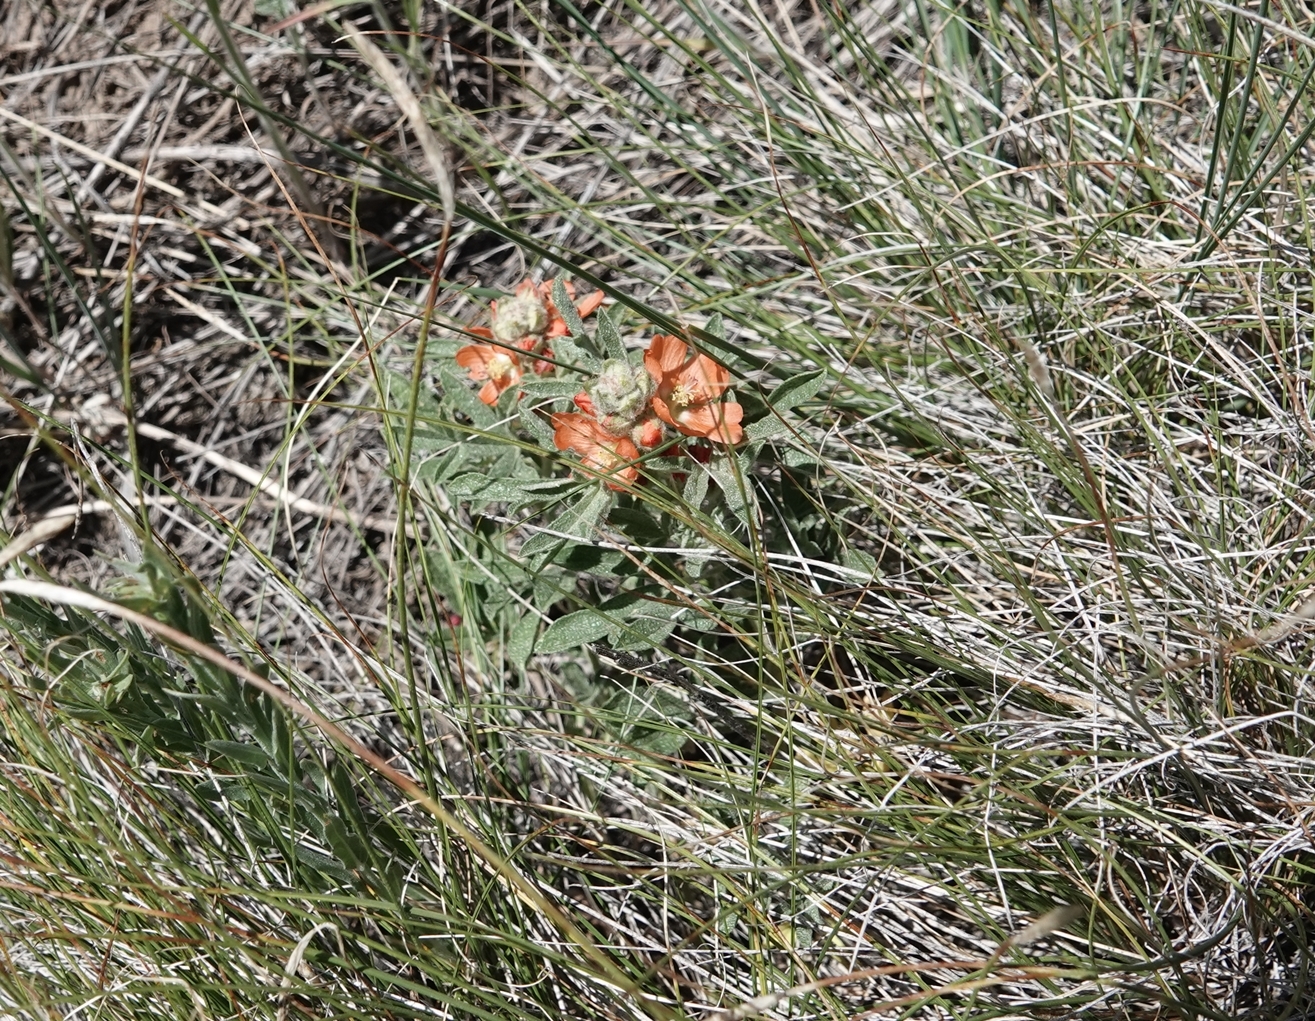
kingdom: Plantae
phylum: Tracheophyta
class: Magnoliopsida
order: Malvales
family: Malvaceae
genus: Sphaeralcea
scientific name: Sphaeralcea coccinea
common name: Moss-rose
